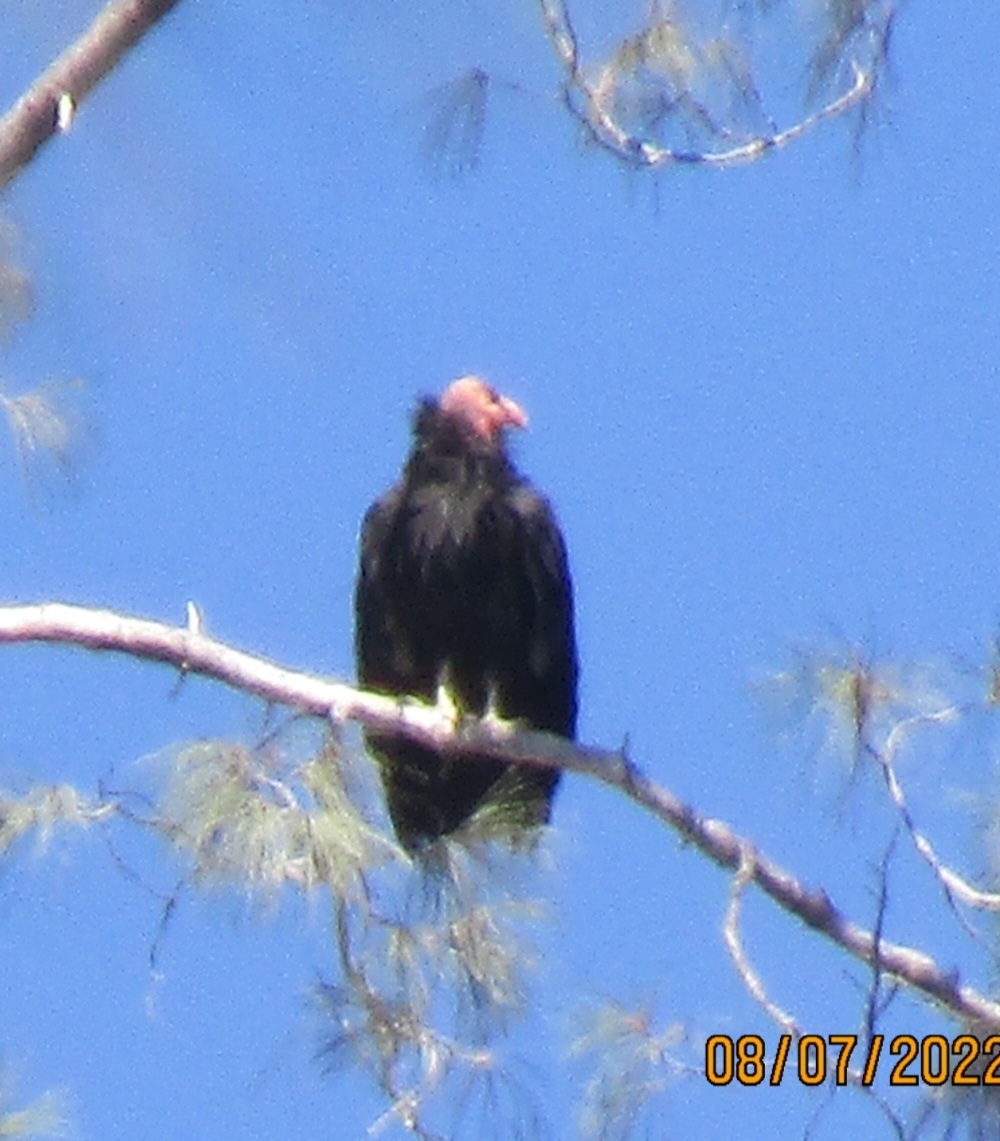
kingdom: Animalia
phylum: Chordata
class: Aves
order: Accipitriformes
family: Cathartidae
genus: Gymnogyps
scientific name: Gymnogyps californianus
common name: California condor
